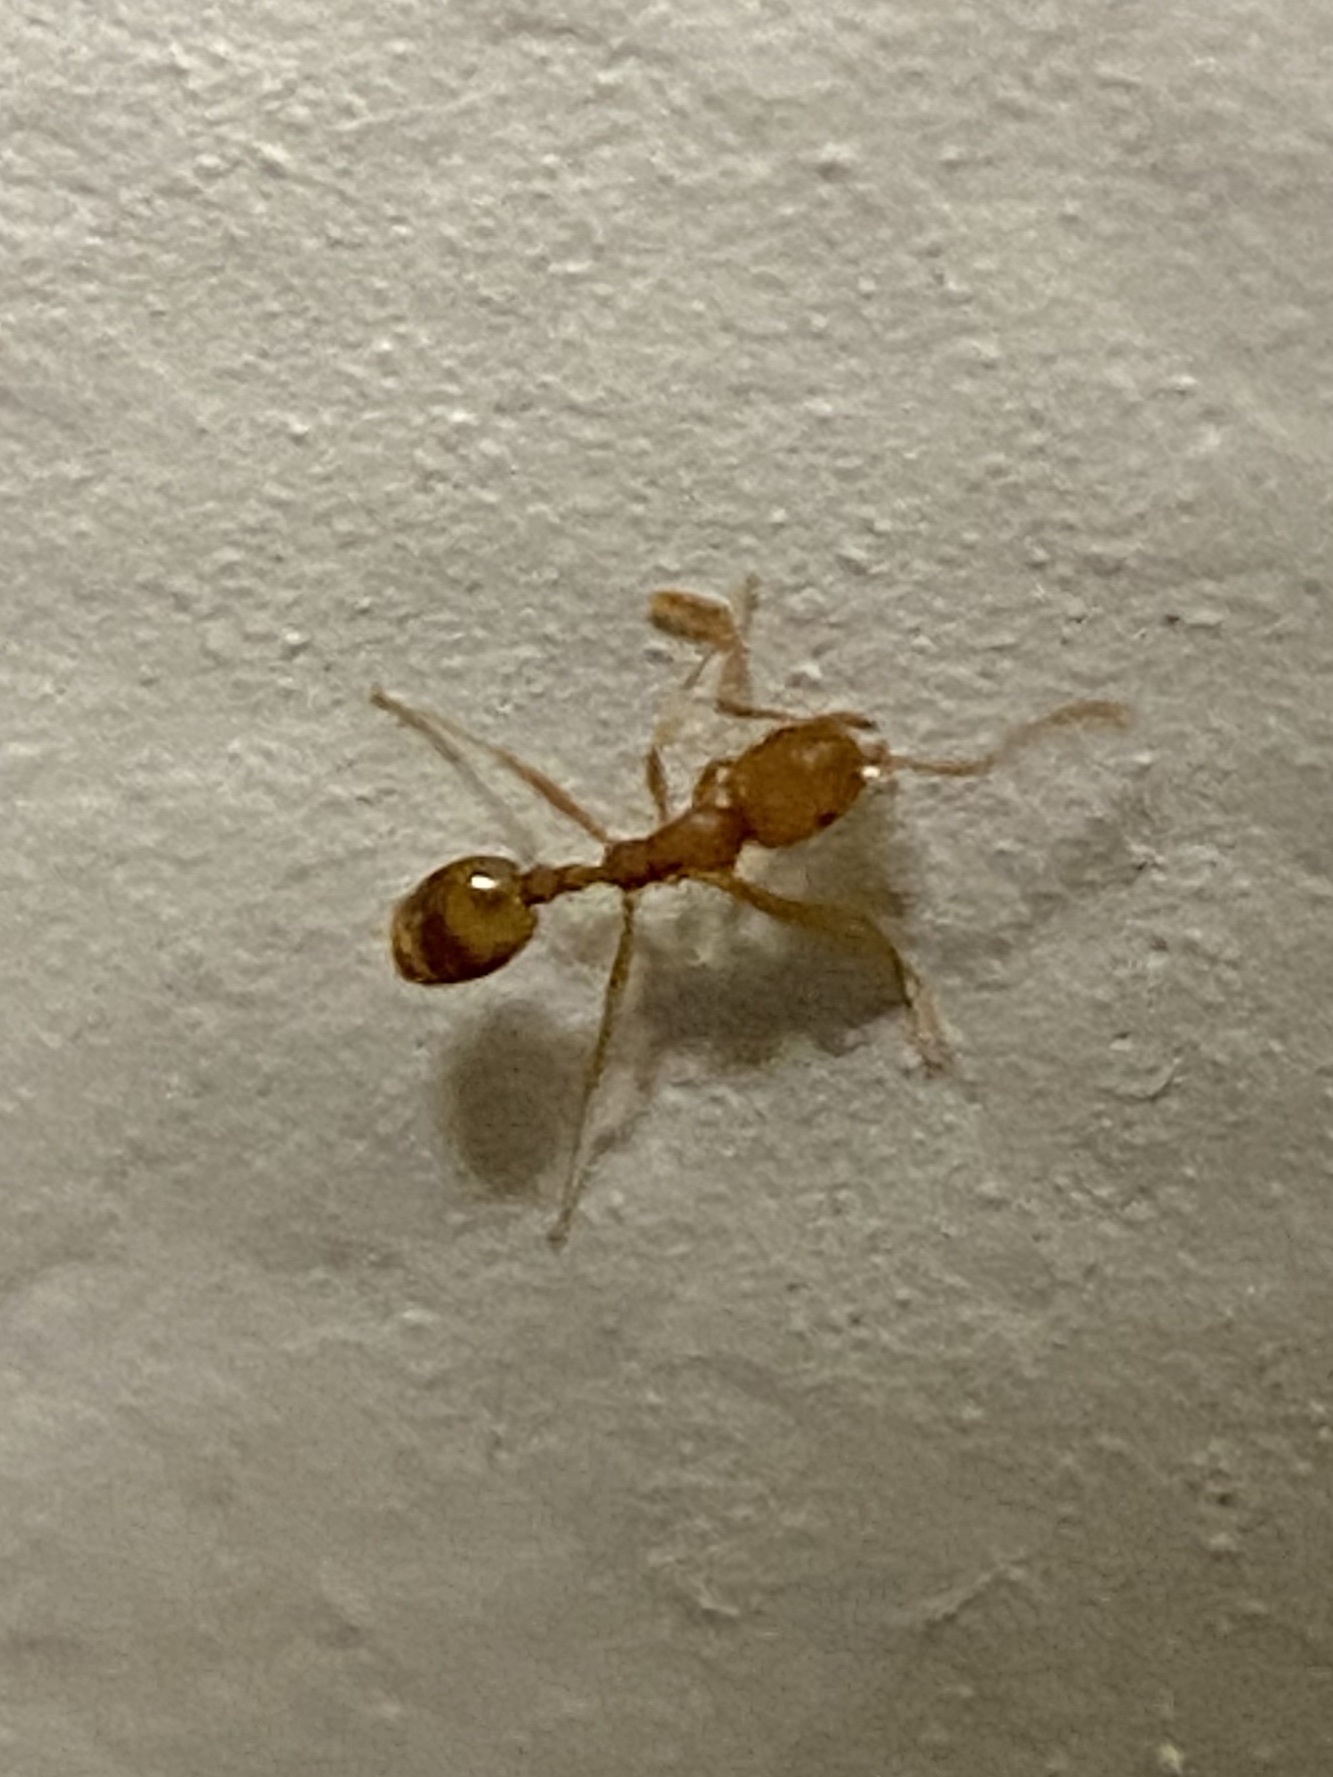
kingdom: Animalia
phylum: Arthropoda
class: Insecta
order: Hymenoptera
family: Formicidae
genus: Monomorium
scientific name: Monomorium pharaonis
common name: Pharaoh ant
